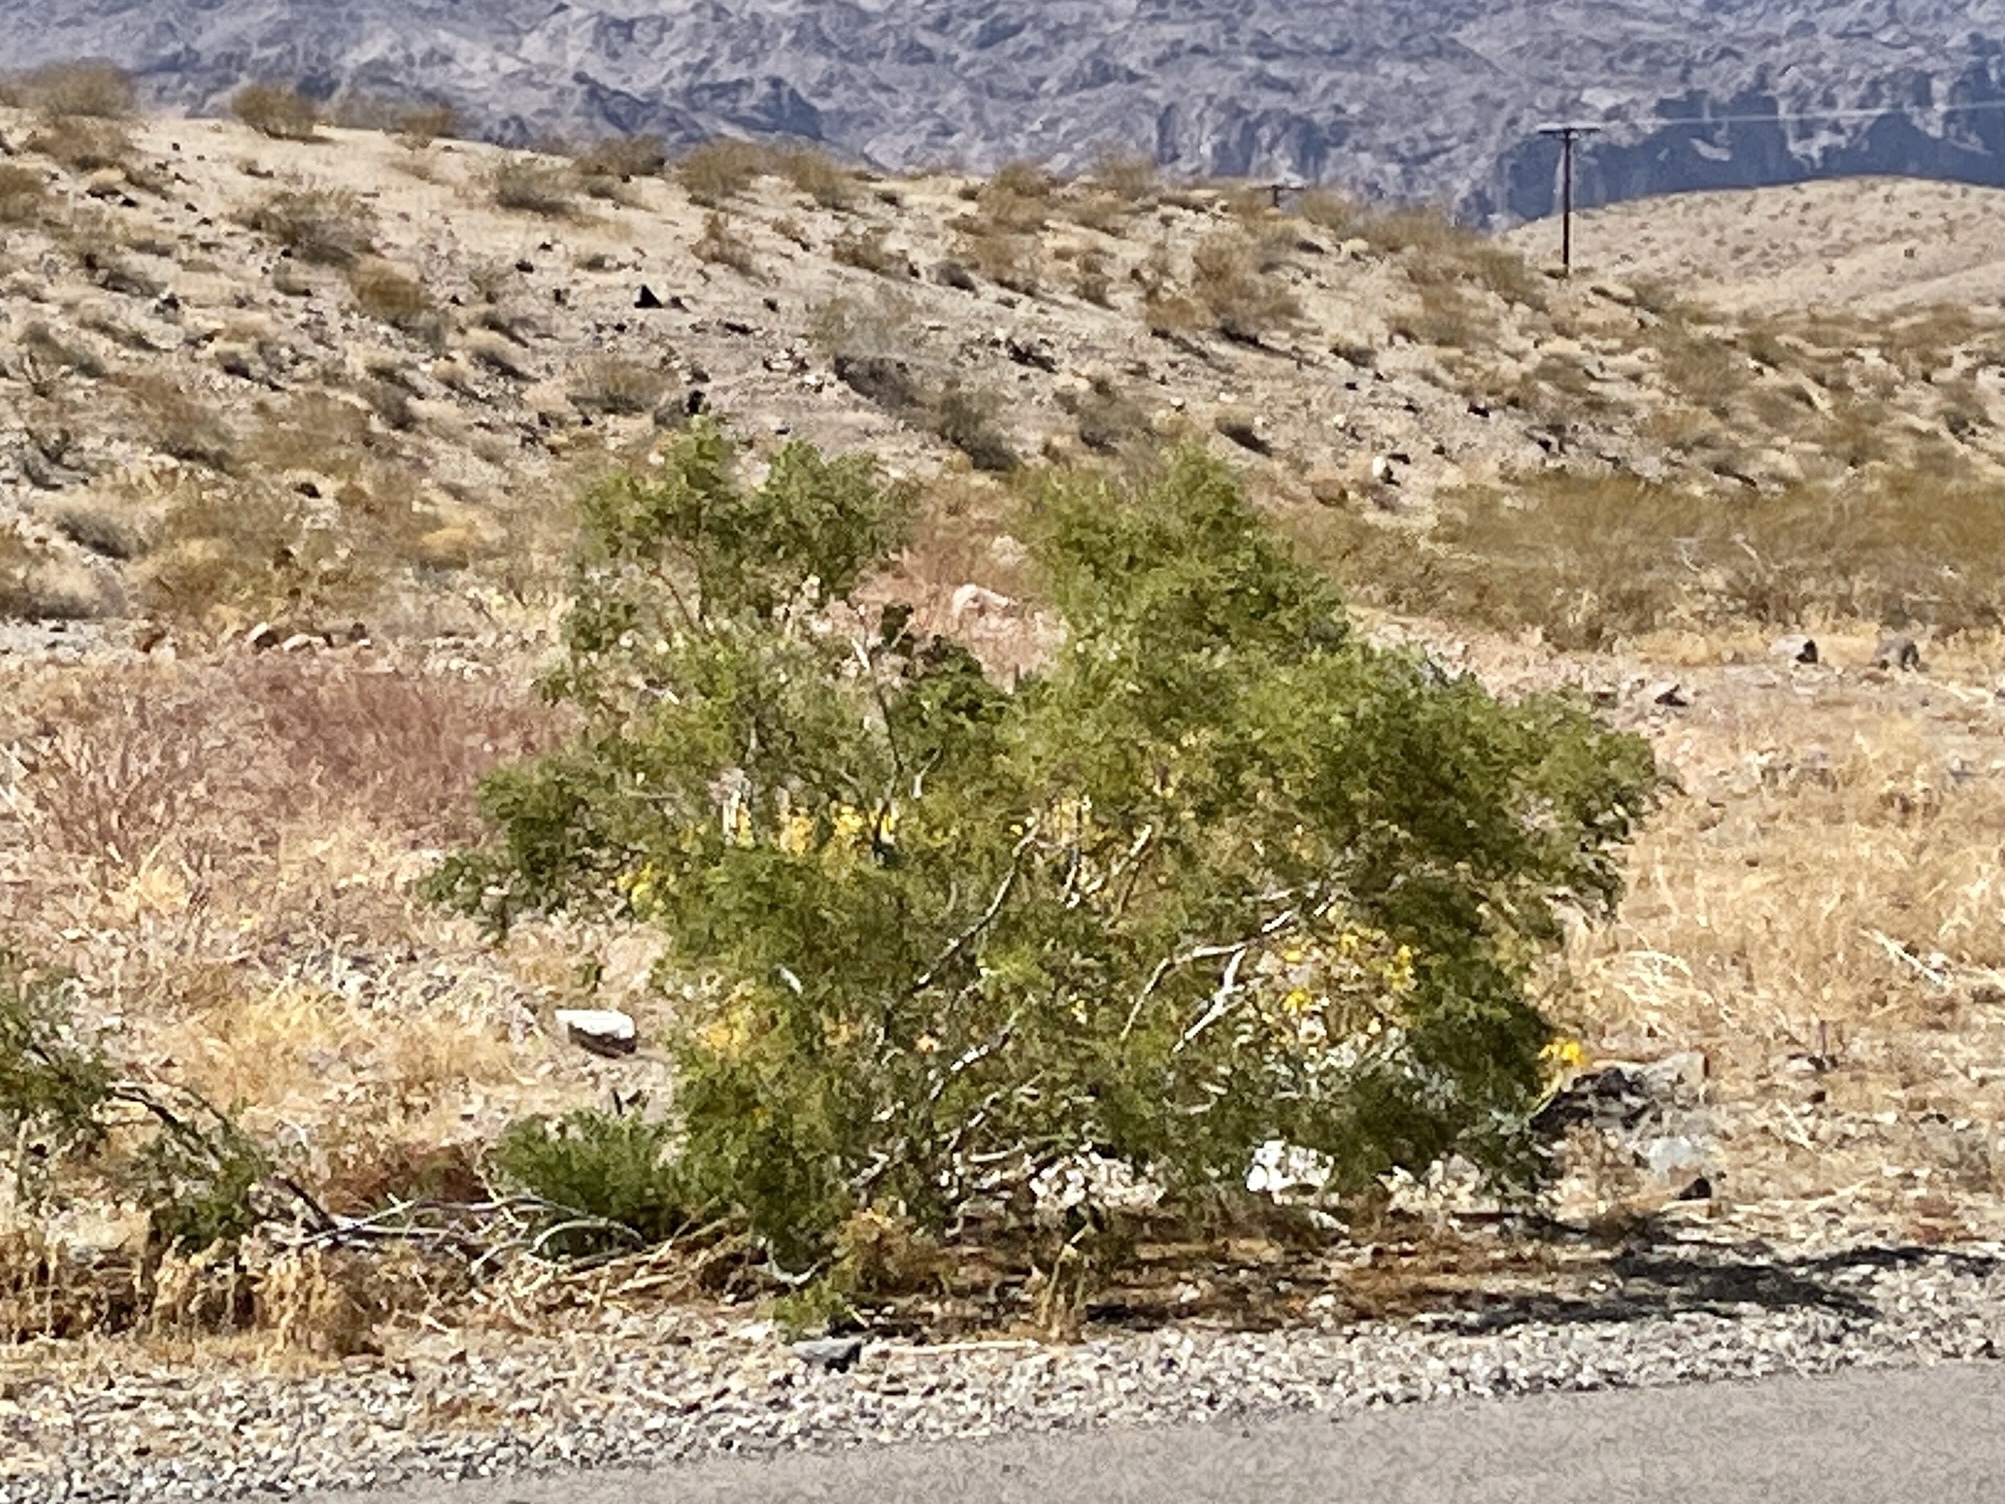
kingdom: Plantae
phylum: Tracheophyta
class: Magnoliopsida
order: Zygophyllales
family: Zygophyllaceae
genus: Larrea
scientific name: Larrea tridentata
